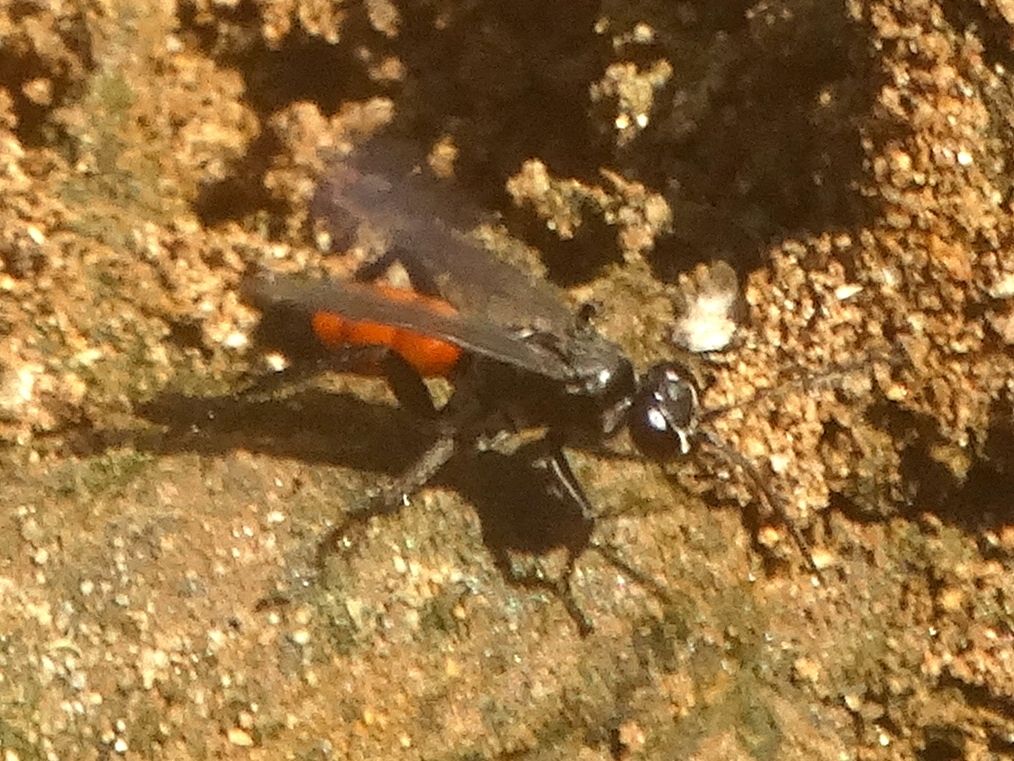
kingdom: Animalia
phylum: Arthropoda
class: Insecta
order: Hymenoptera
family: Pompilidae
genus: Anoplius
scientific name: Anoplius
